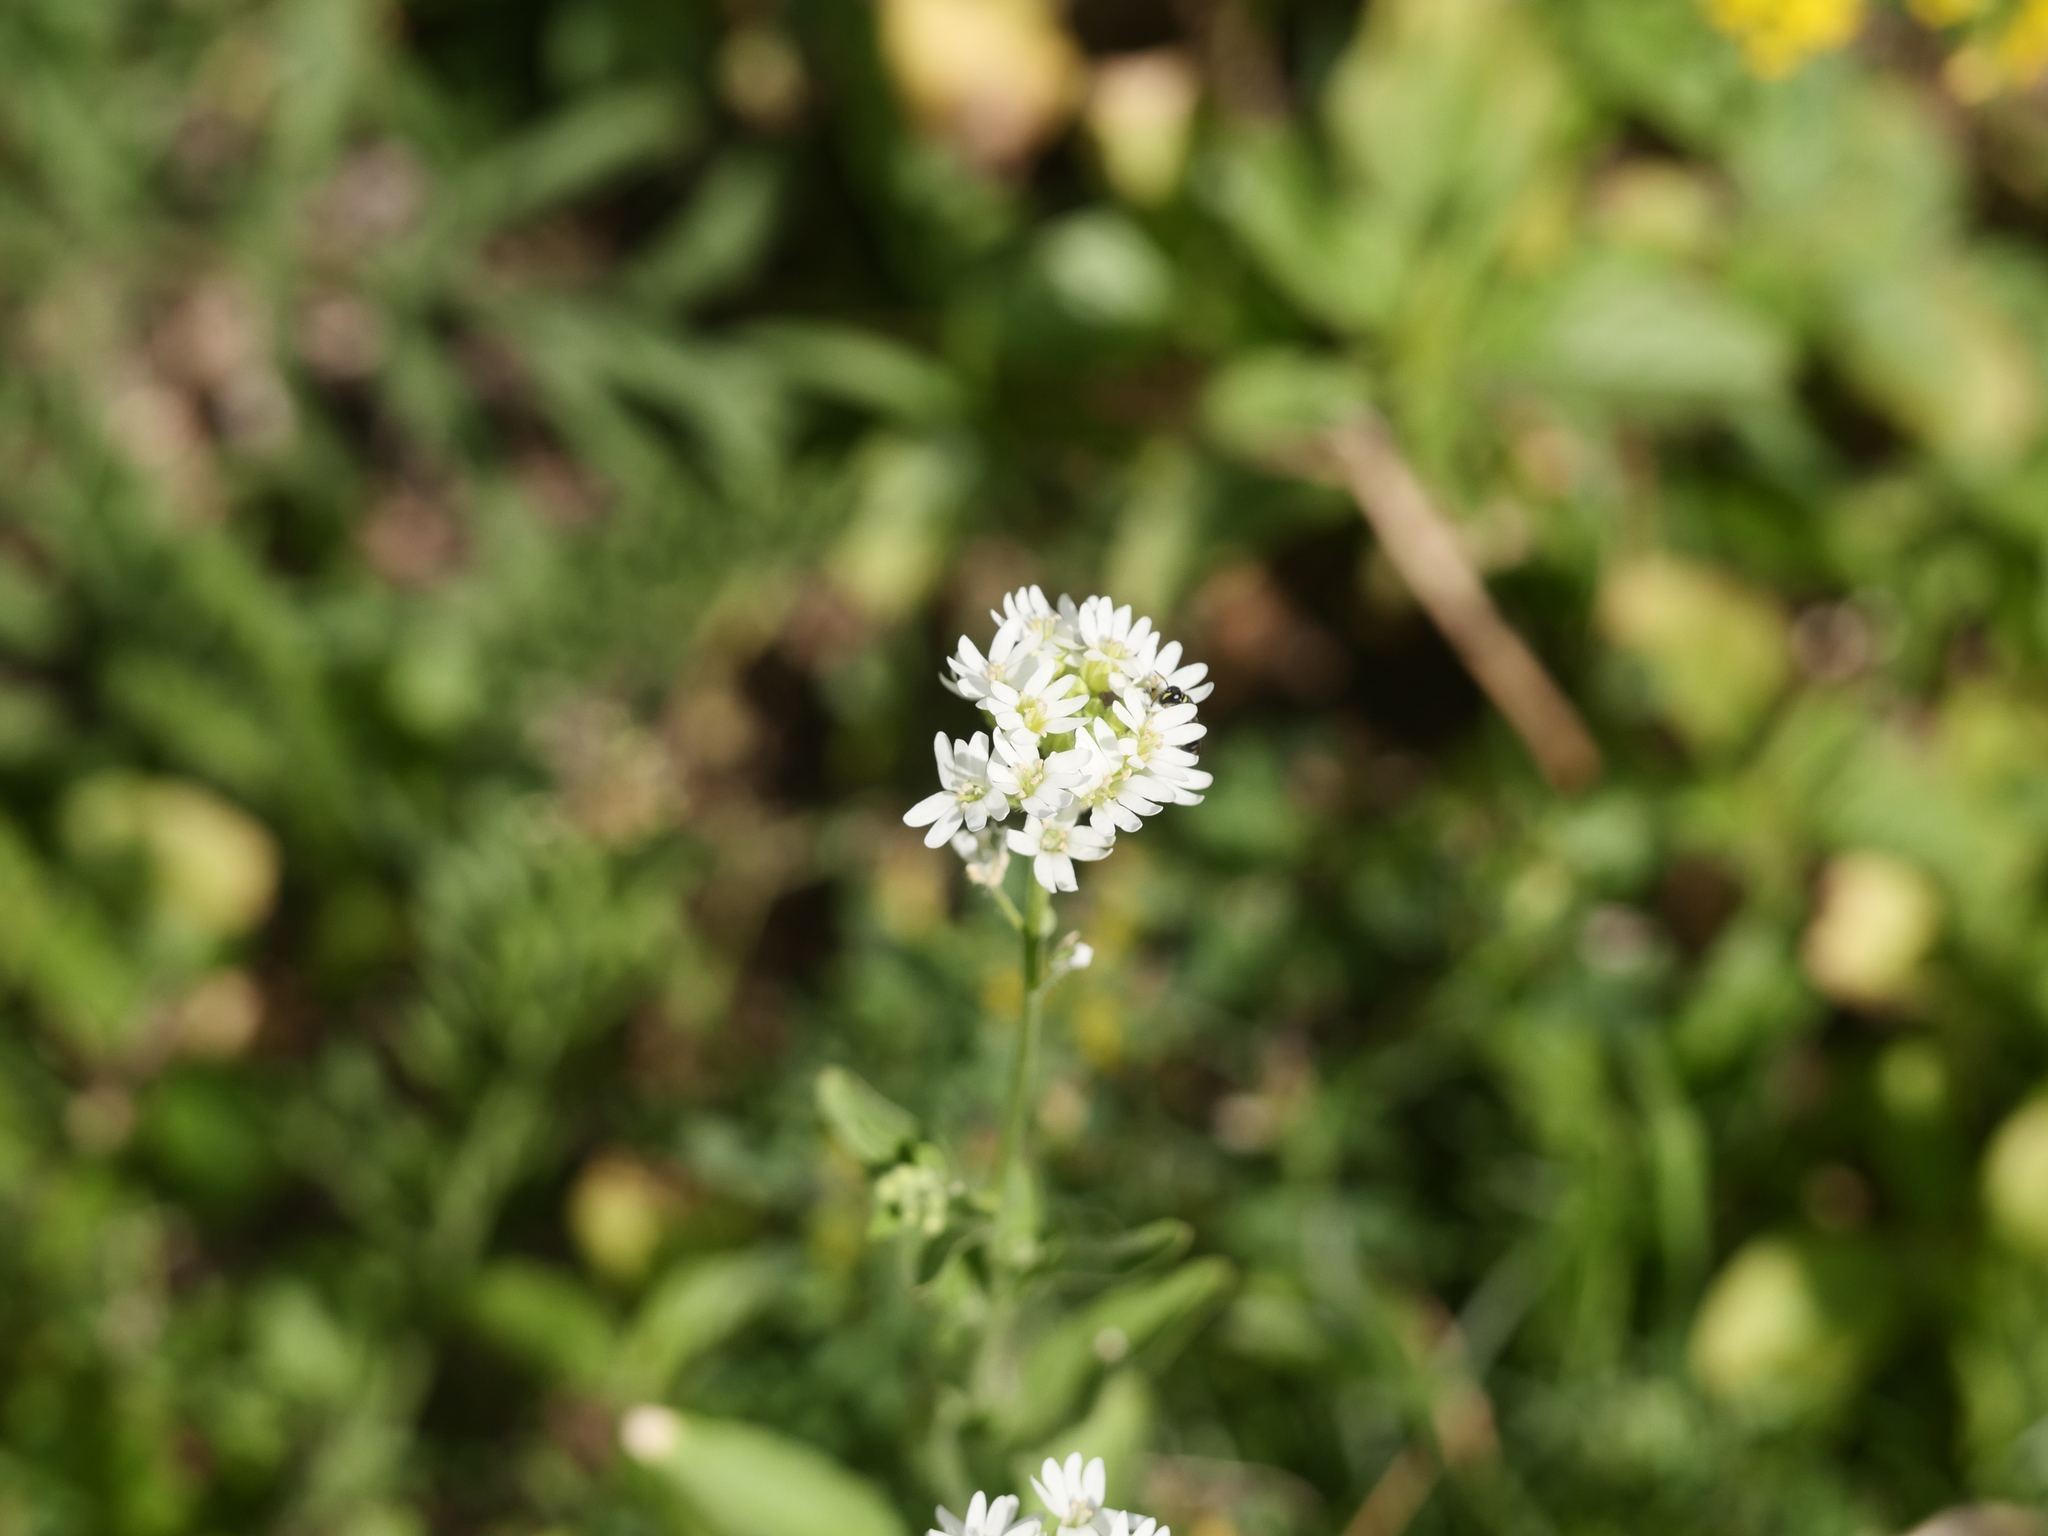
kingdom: Plantae
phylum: Tracheophyta
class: Magnoliopsida
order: Brassicales
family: Brassicaceae
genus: Berteroa
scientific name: Berteroa incana
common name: Hoary alison
